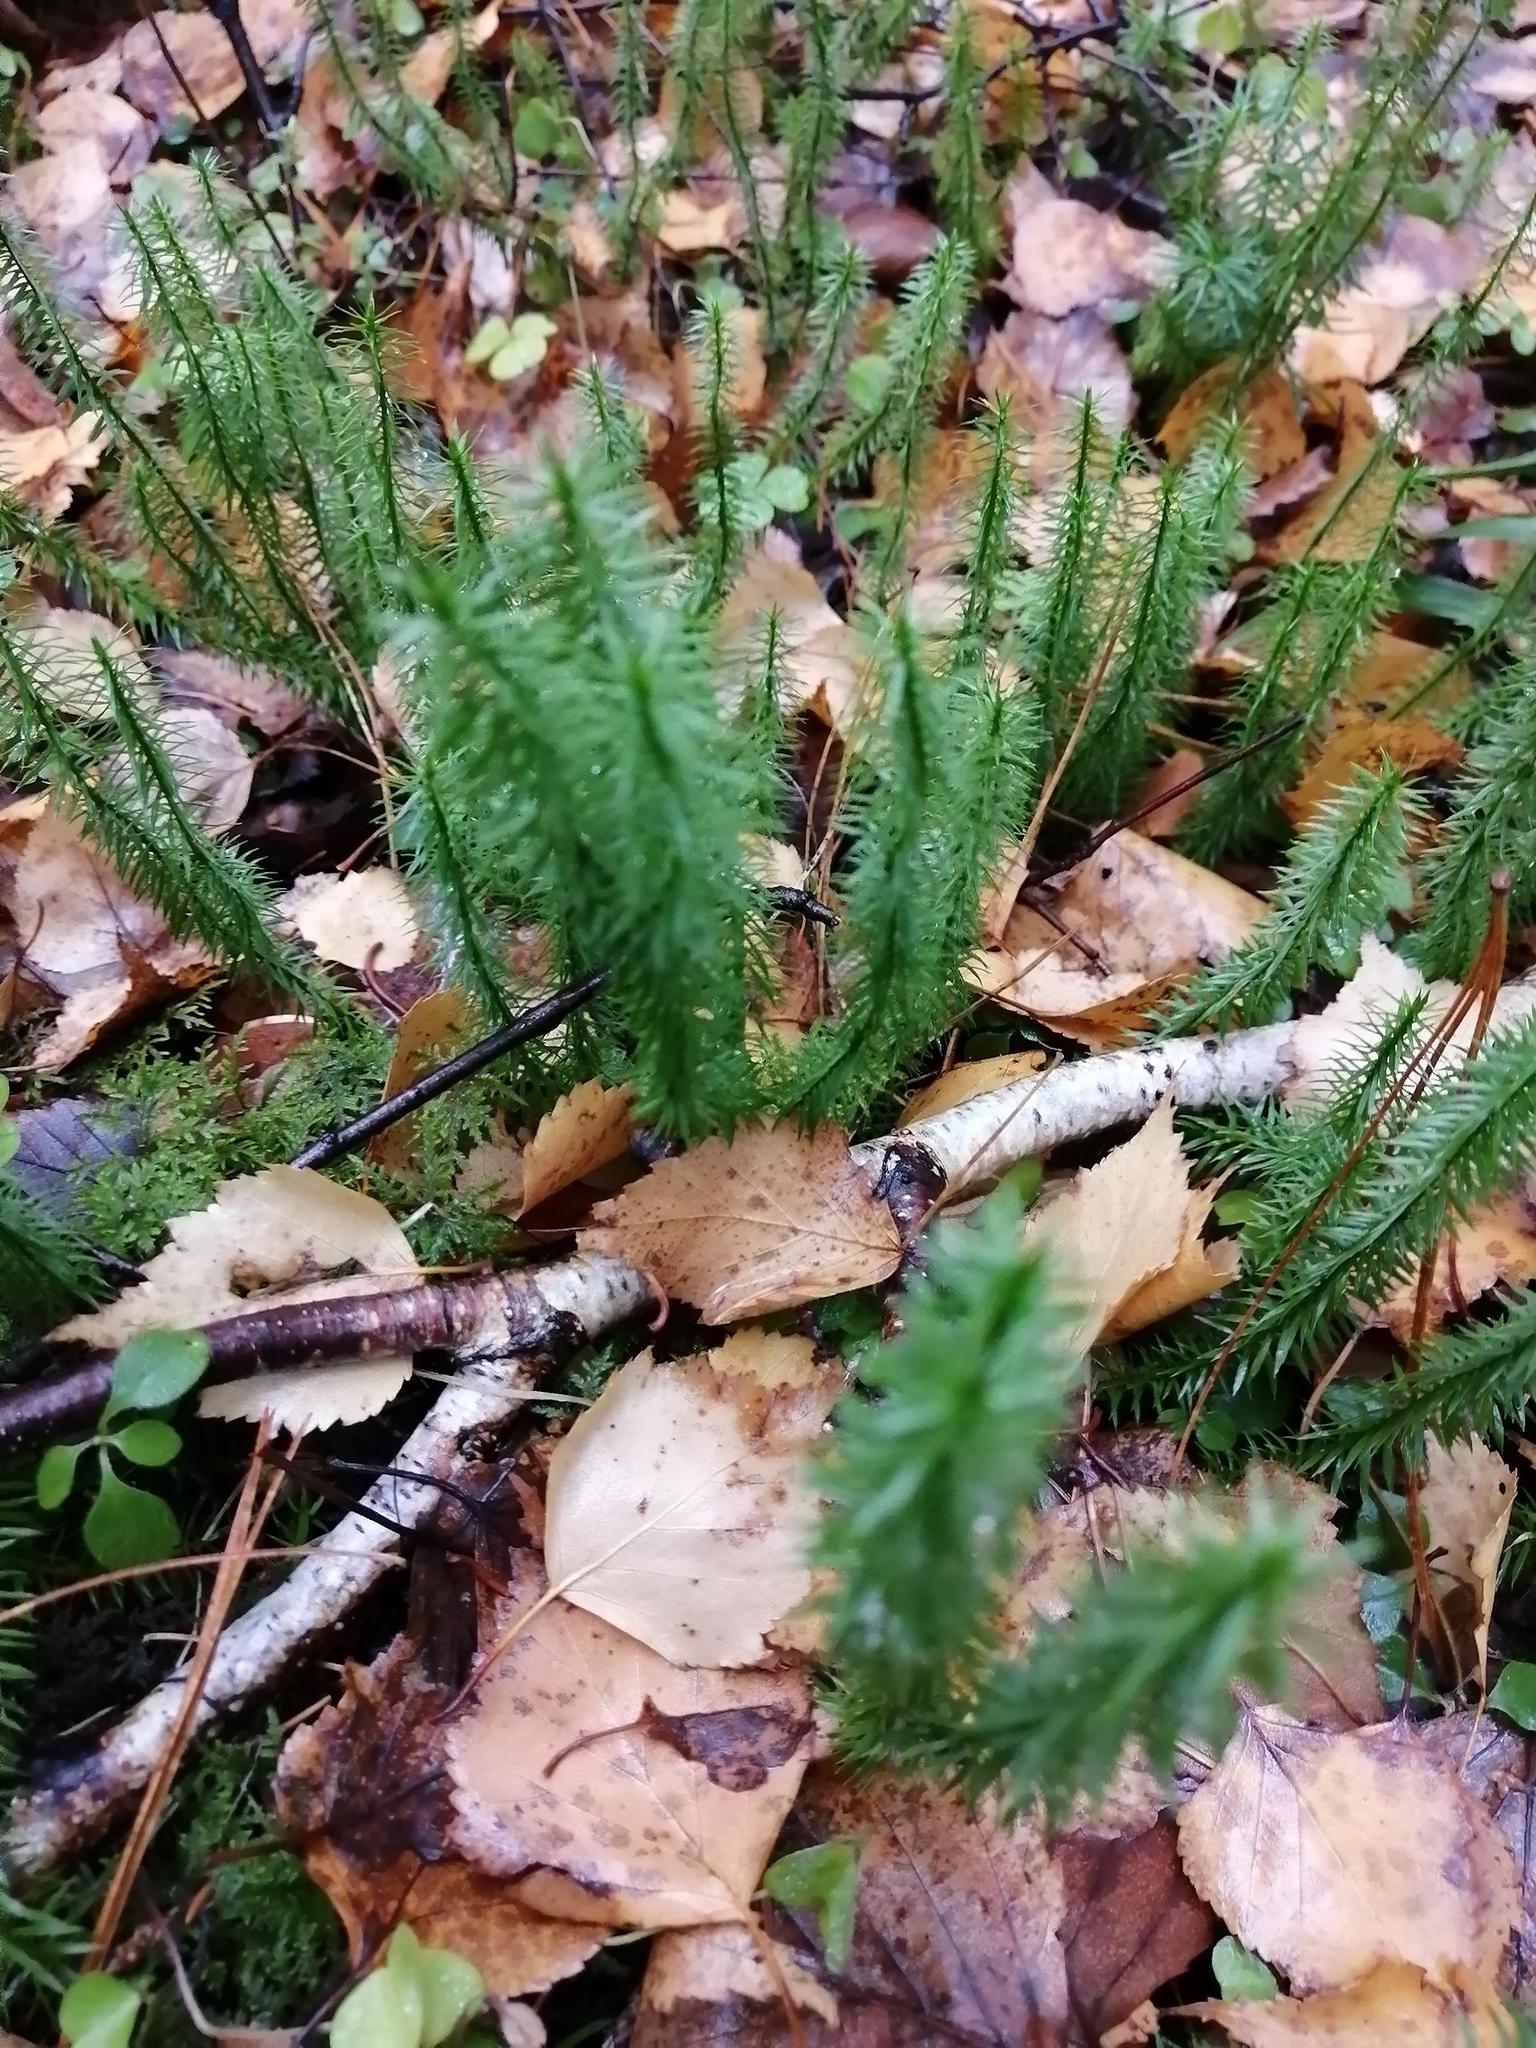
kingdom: Plantae
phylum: Tracheophyta
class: Lycopodiopsida
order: Lycopodiales
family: Lycopodiaceae
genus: Spinulum
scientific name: Spinulum annotinum
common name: Interrupted club-moss
